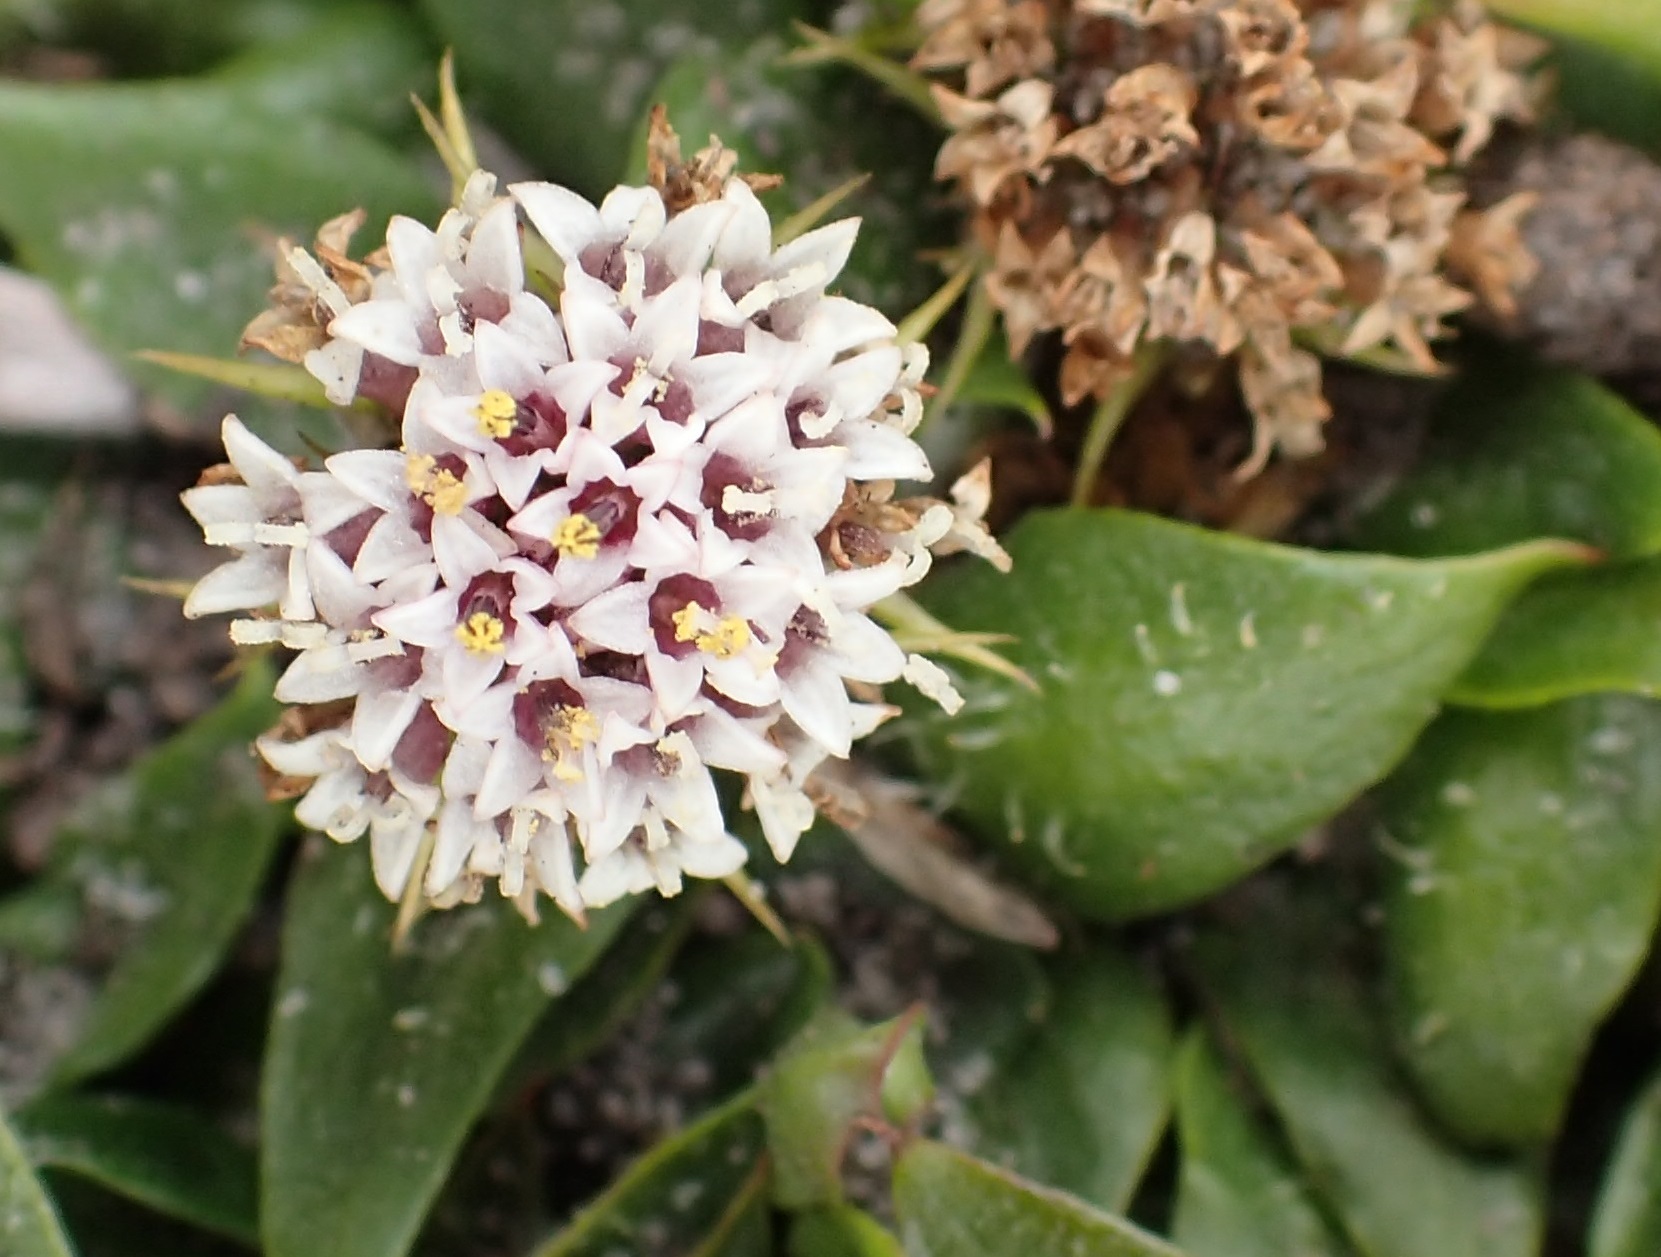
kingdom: Plantae
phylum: Tracheophyta
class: Magnoliopsida
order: Asterales
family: Asteraceae
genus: Ammobium
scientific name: Ammobium calyceroides
